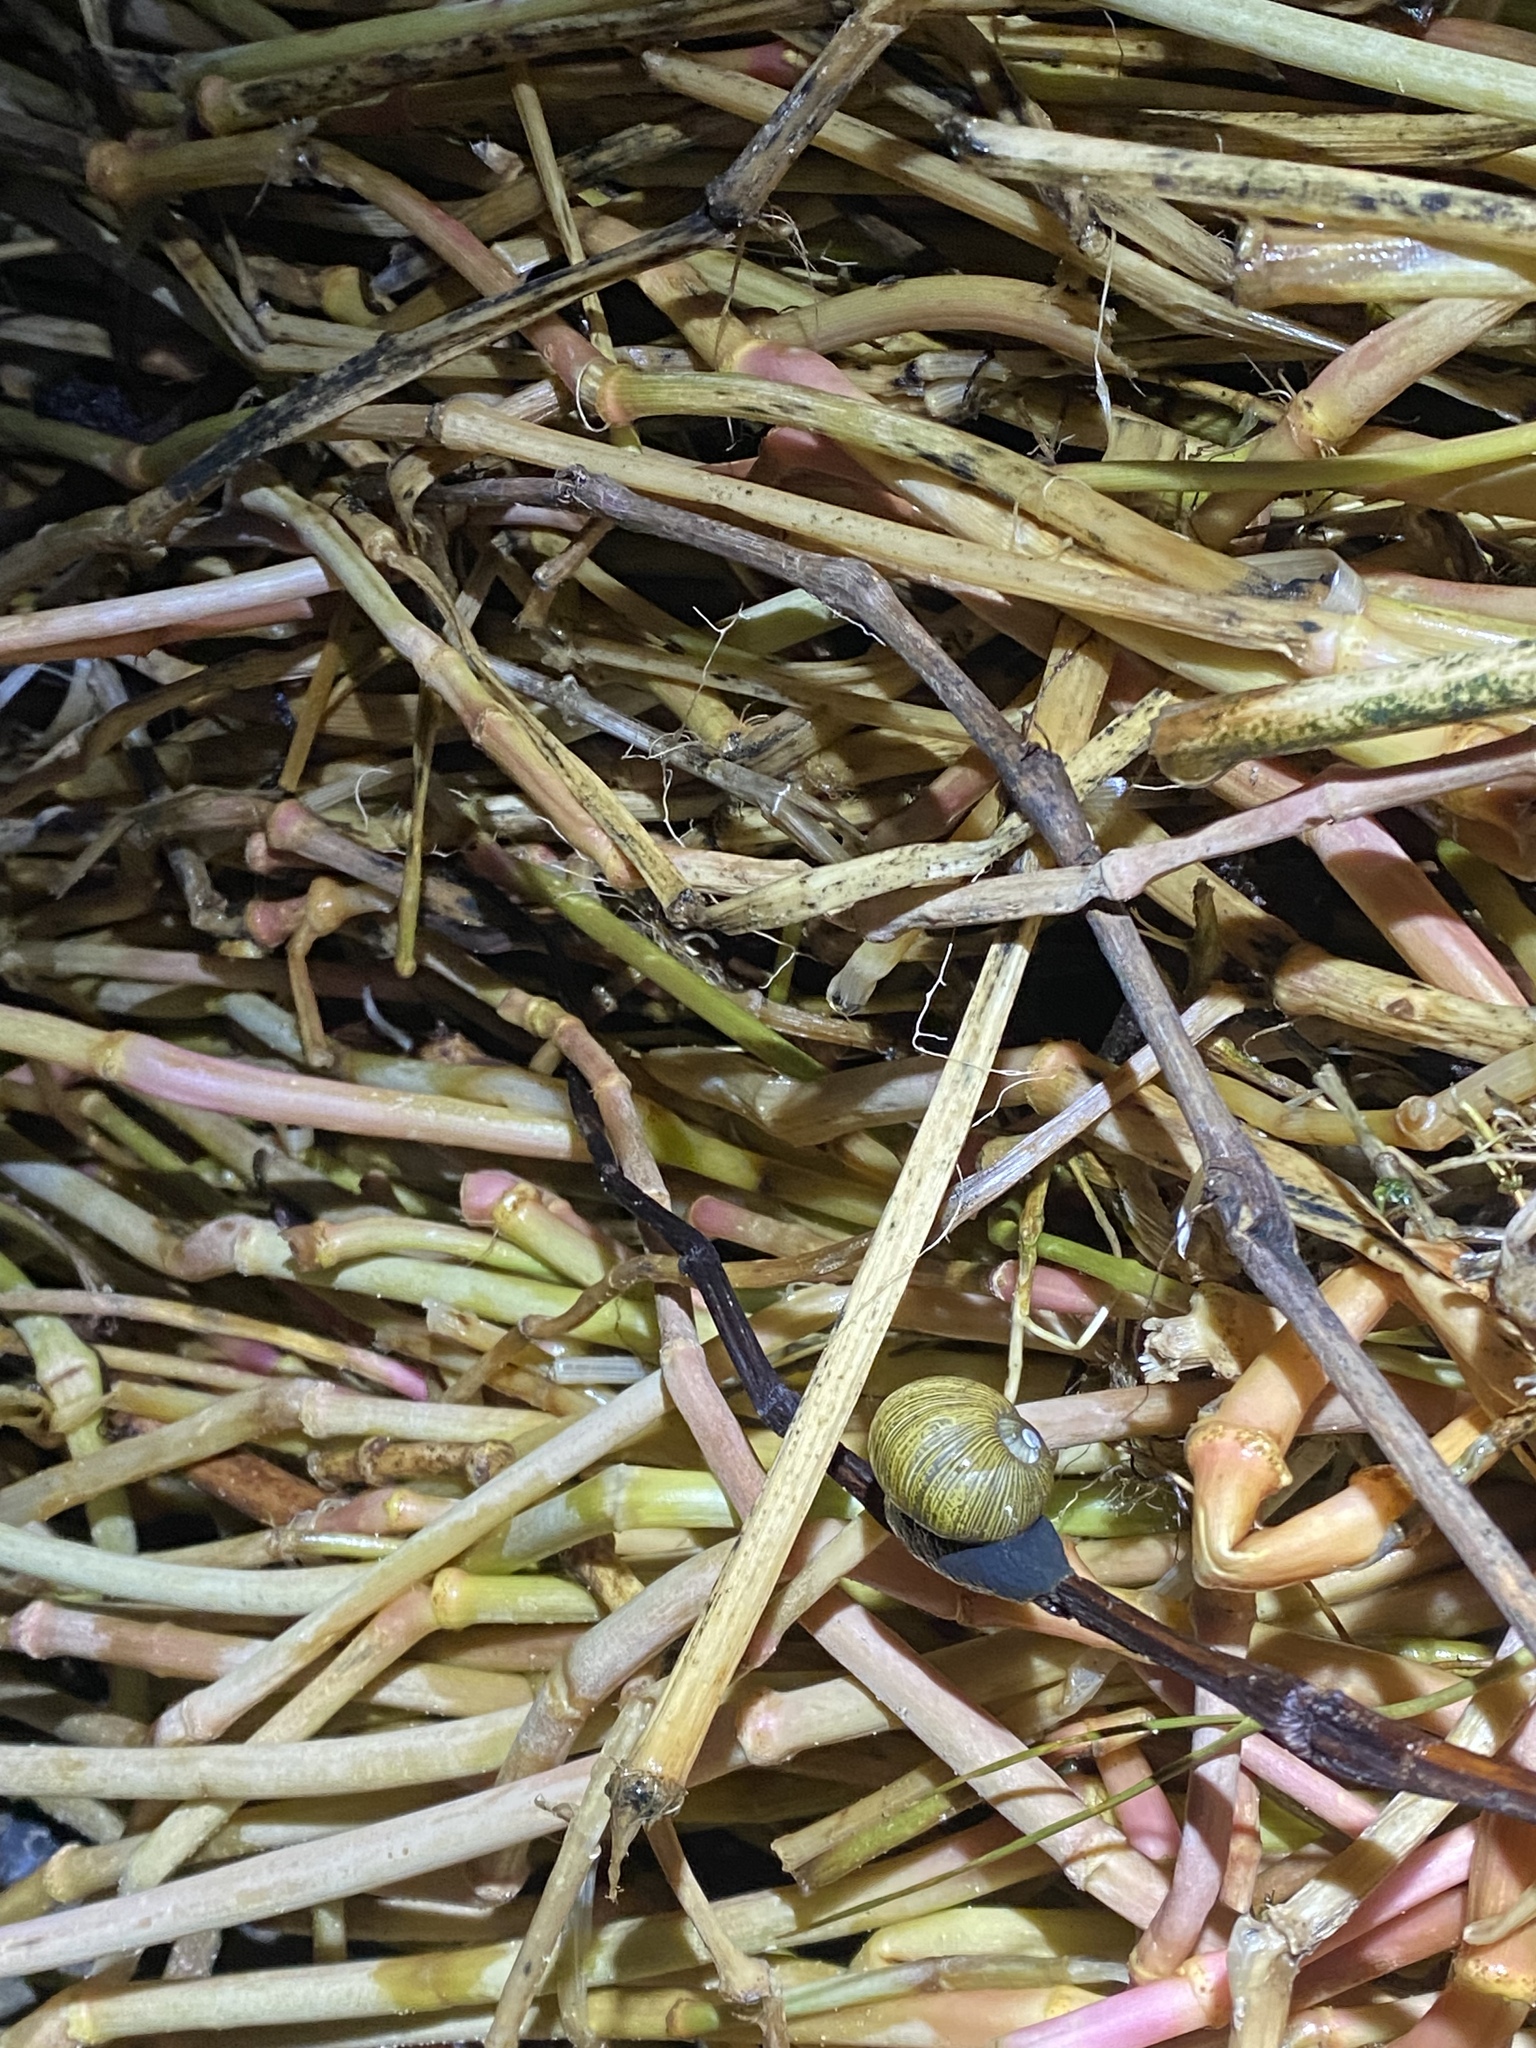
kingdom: Animalia
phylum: Mollusca
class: Gastropoda
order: Stylommatophora
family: Helicidae
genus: Cantareus
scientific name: Cantareus apertus
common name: Green gardensnail
